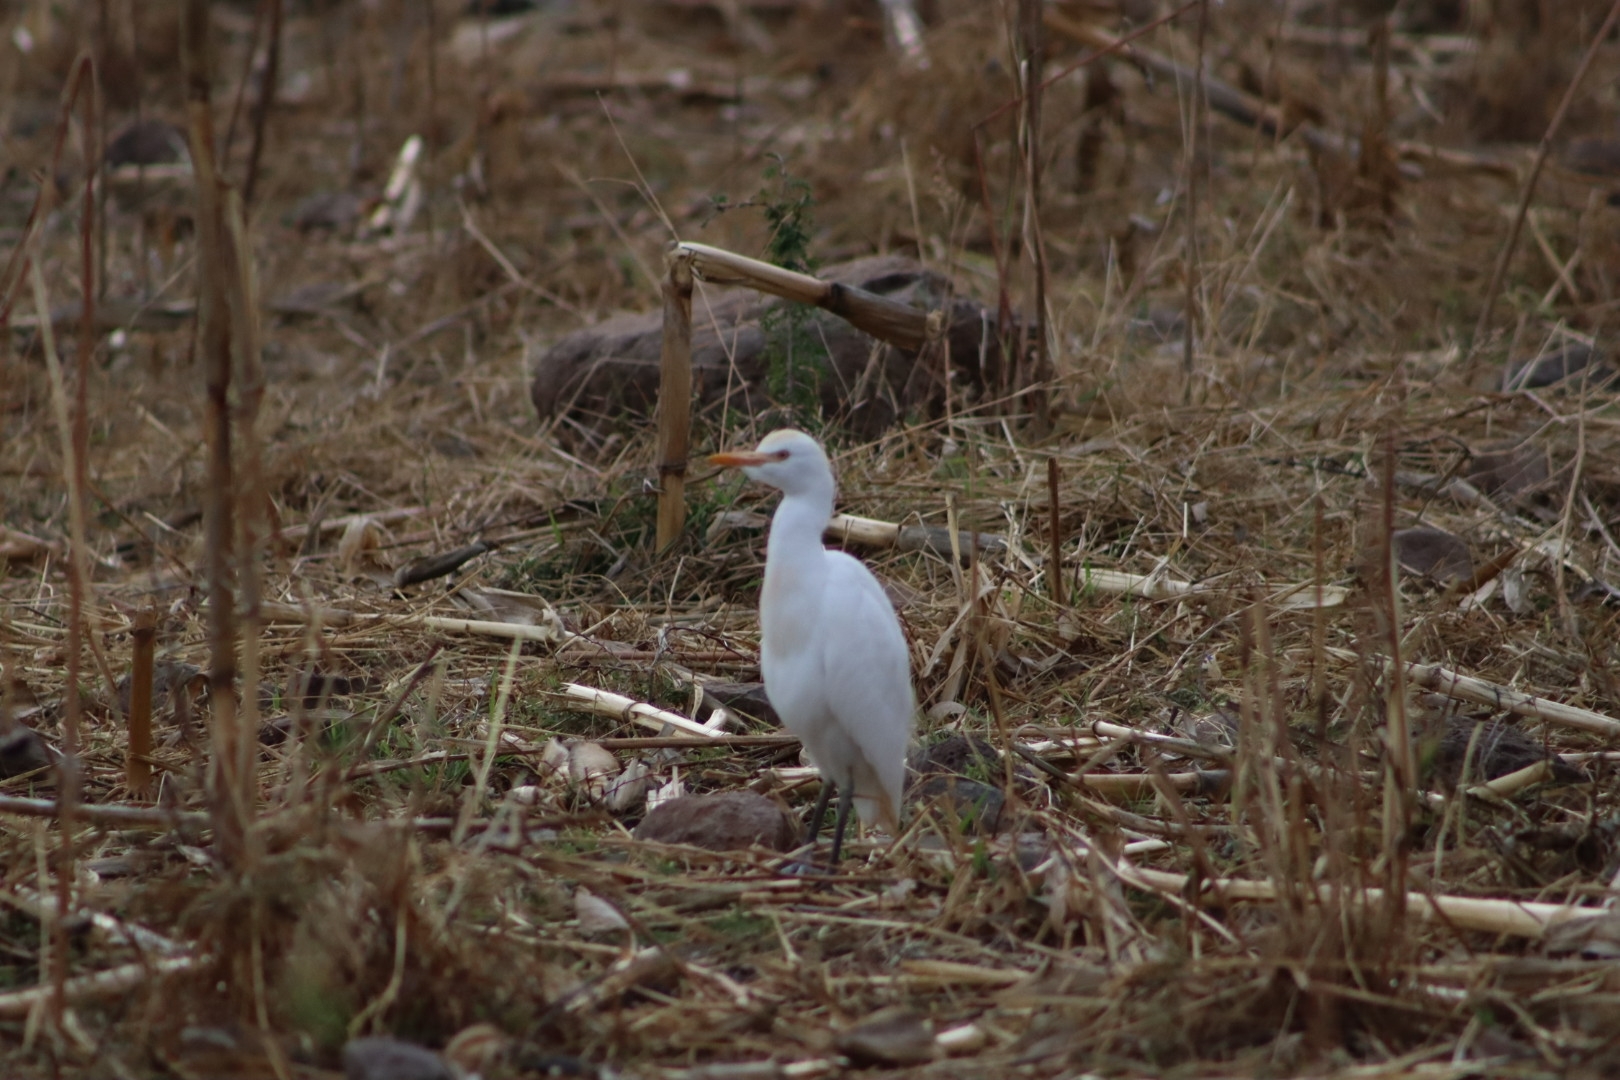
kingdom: Animalia
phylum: Chordata
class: Aves
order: Pelecaniformes
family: Ardeidae
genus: Bubulcus
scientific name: Bubulcus ibis
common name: Cattle egret
